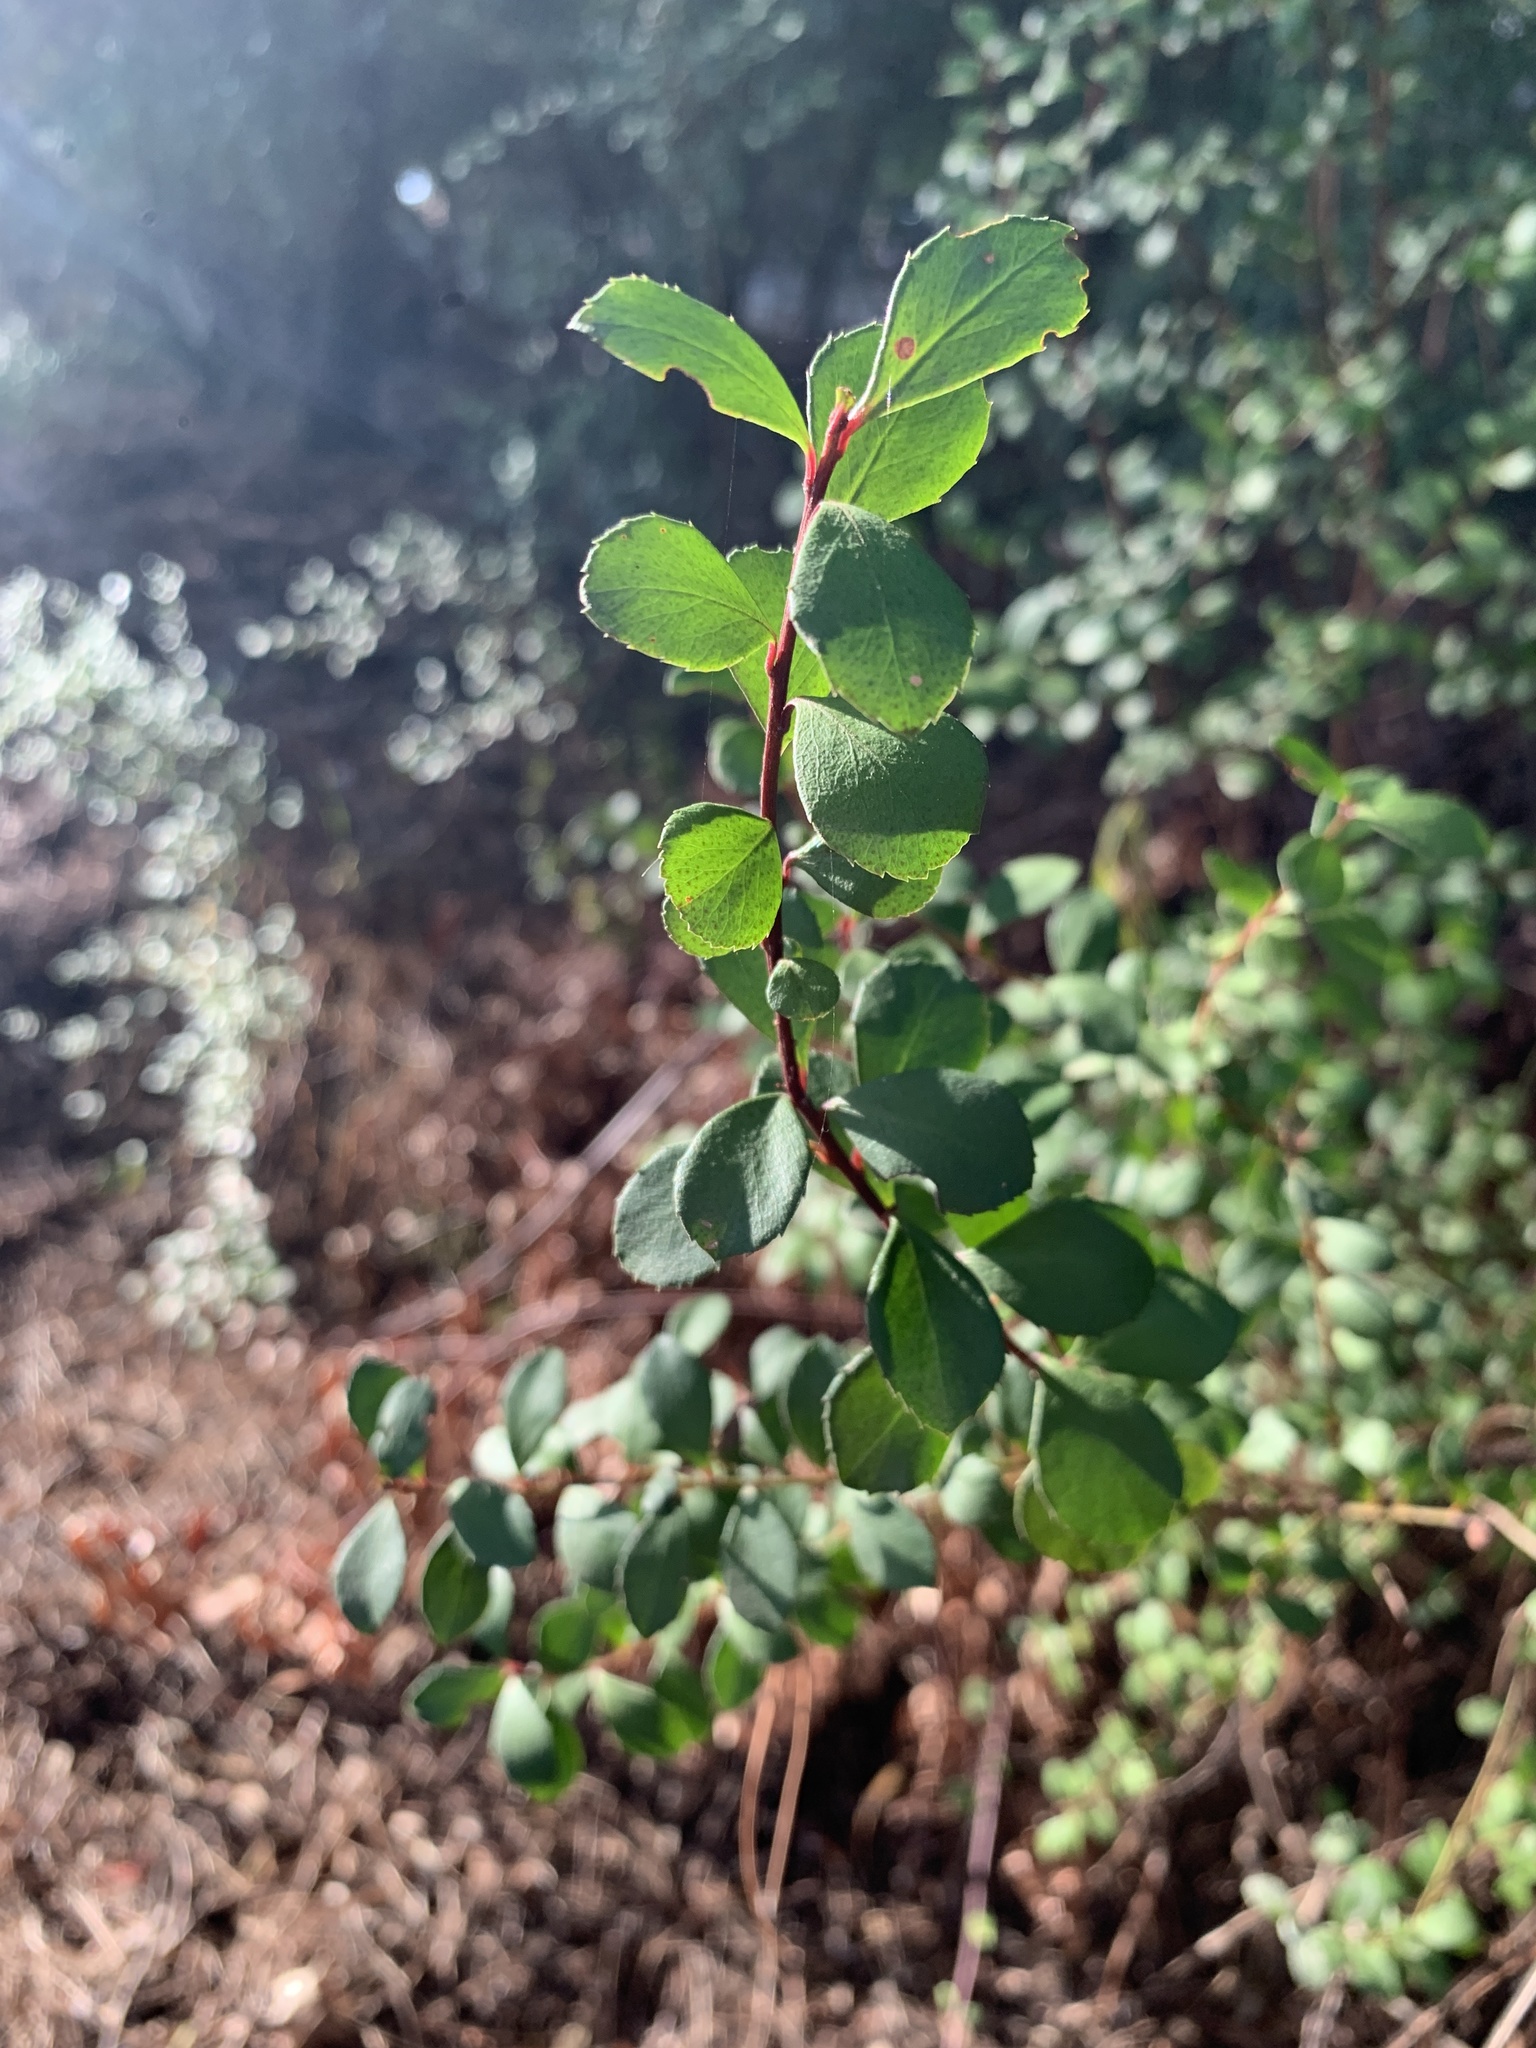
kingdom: Plantae
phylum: Tracheophyta
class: Magnoliopsida
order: Ericales
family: Primulaceae
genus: Myrsine
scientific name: Myrsine africana
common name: African-boxwood
